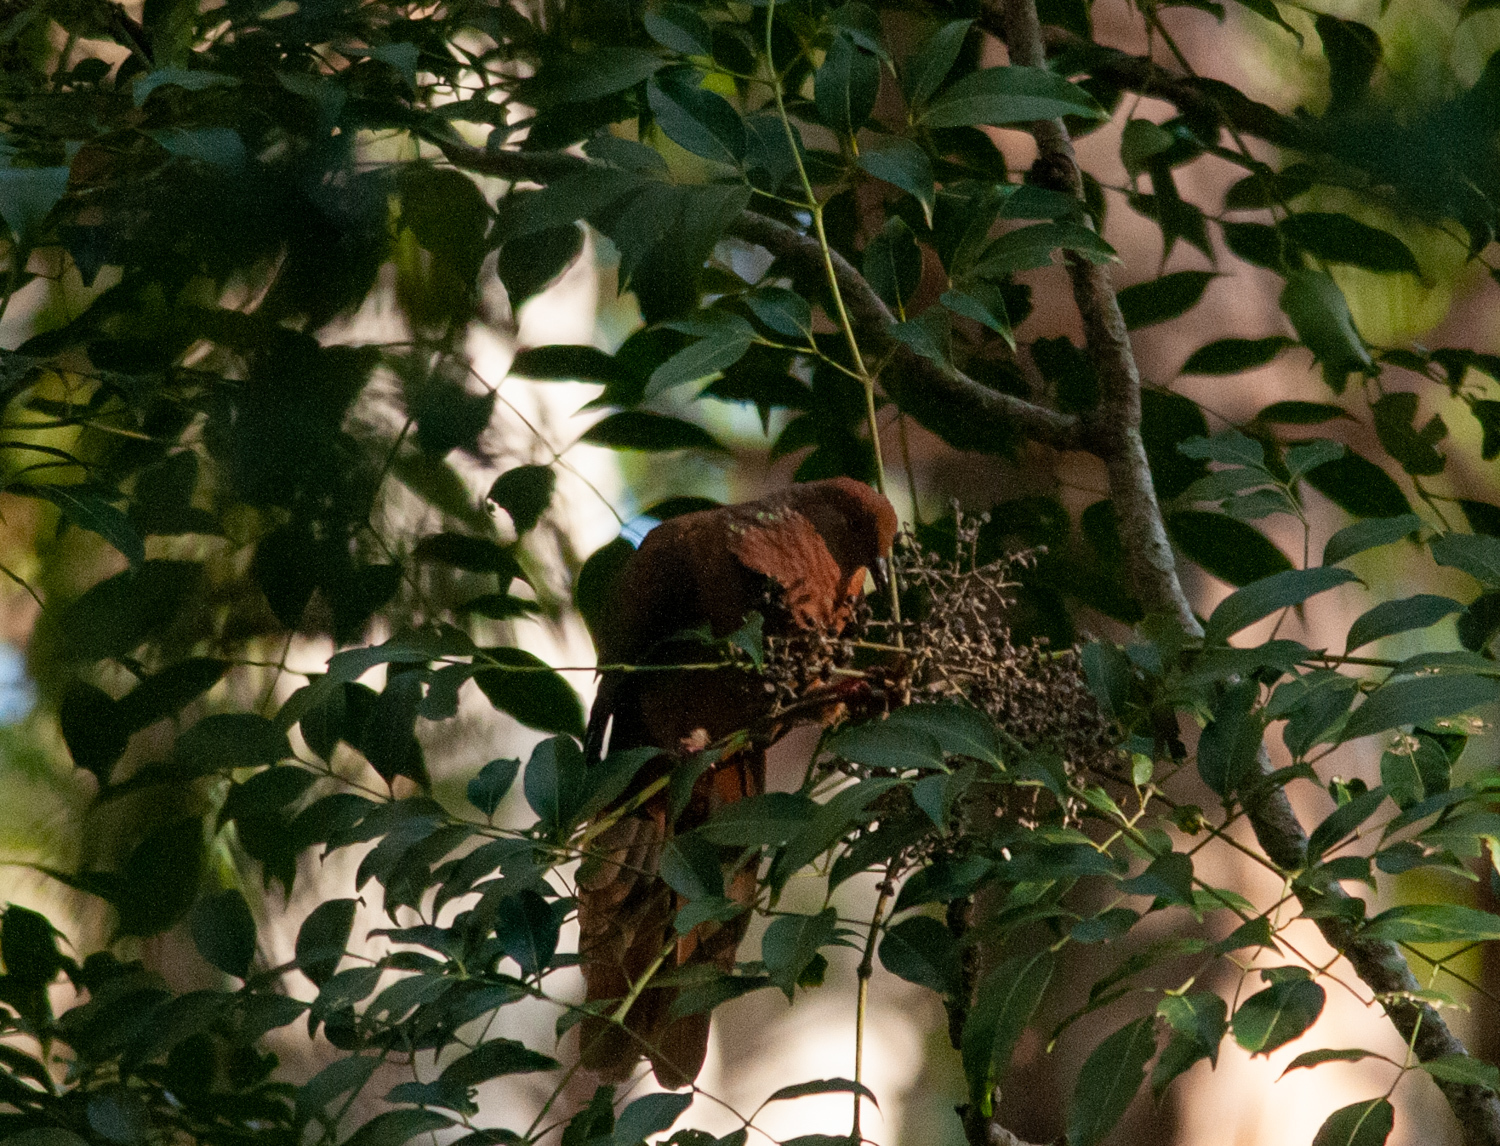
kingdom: Animalia
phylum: Chordata
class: Aves
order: Columbiformes
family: Columbidae
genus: Macropygia
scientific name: Macropygia phasianella
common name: Brown cuckoo-dove
